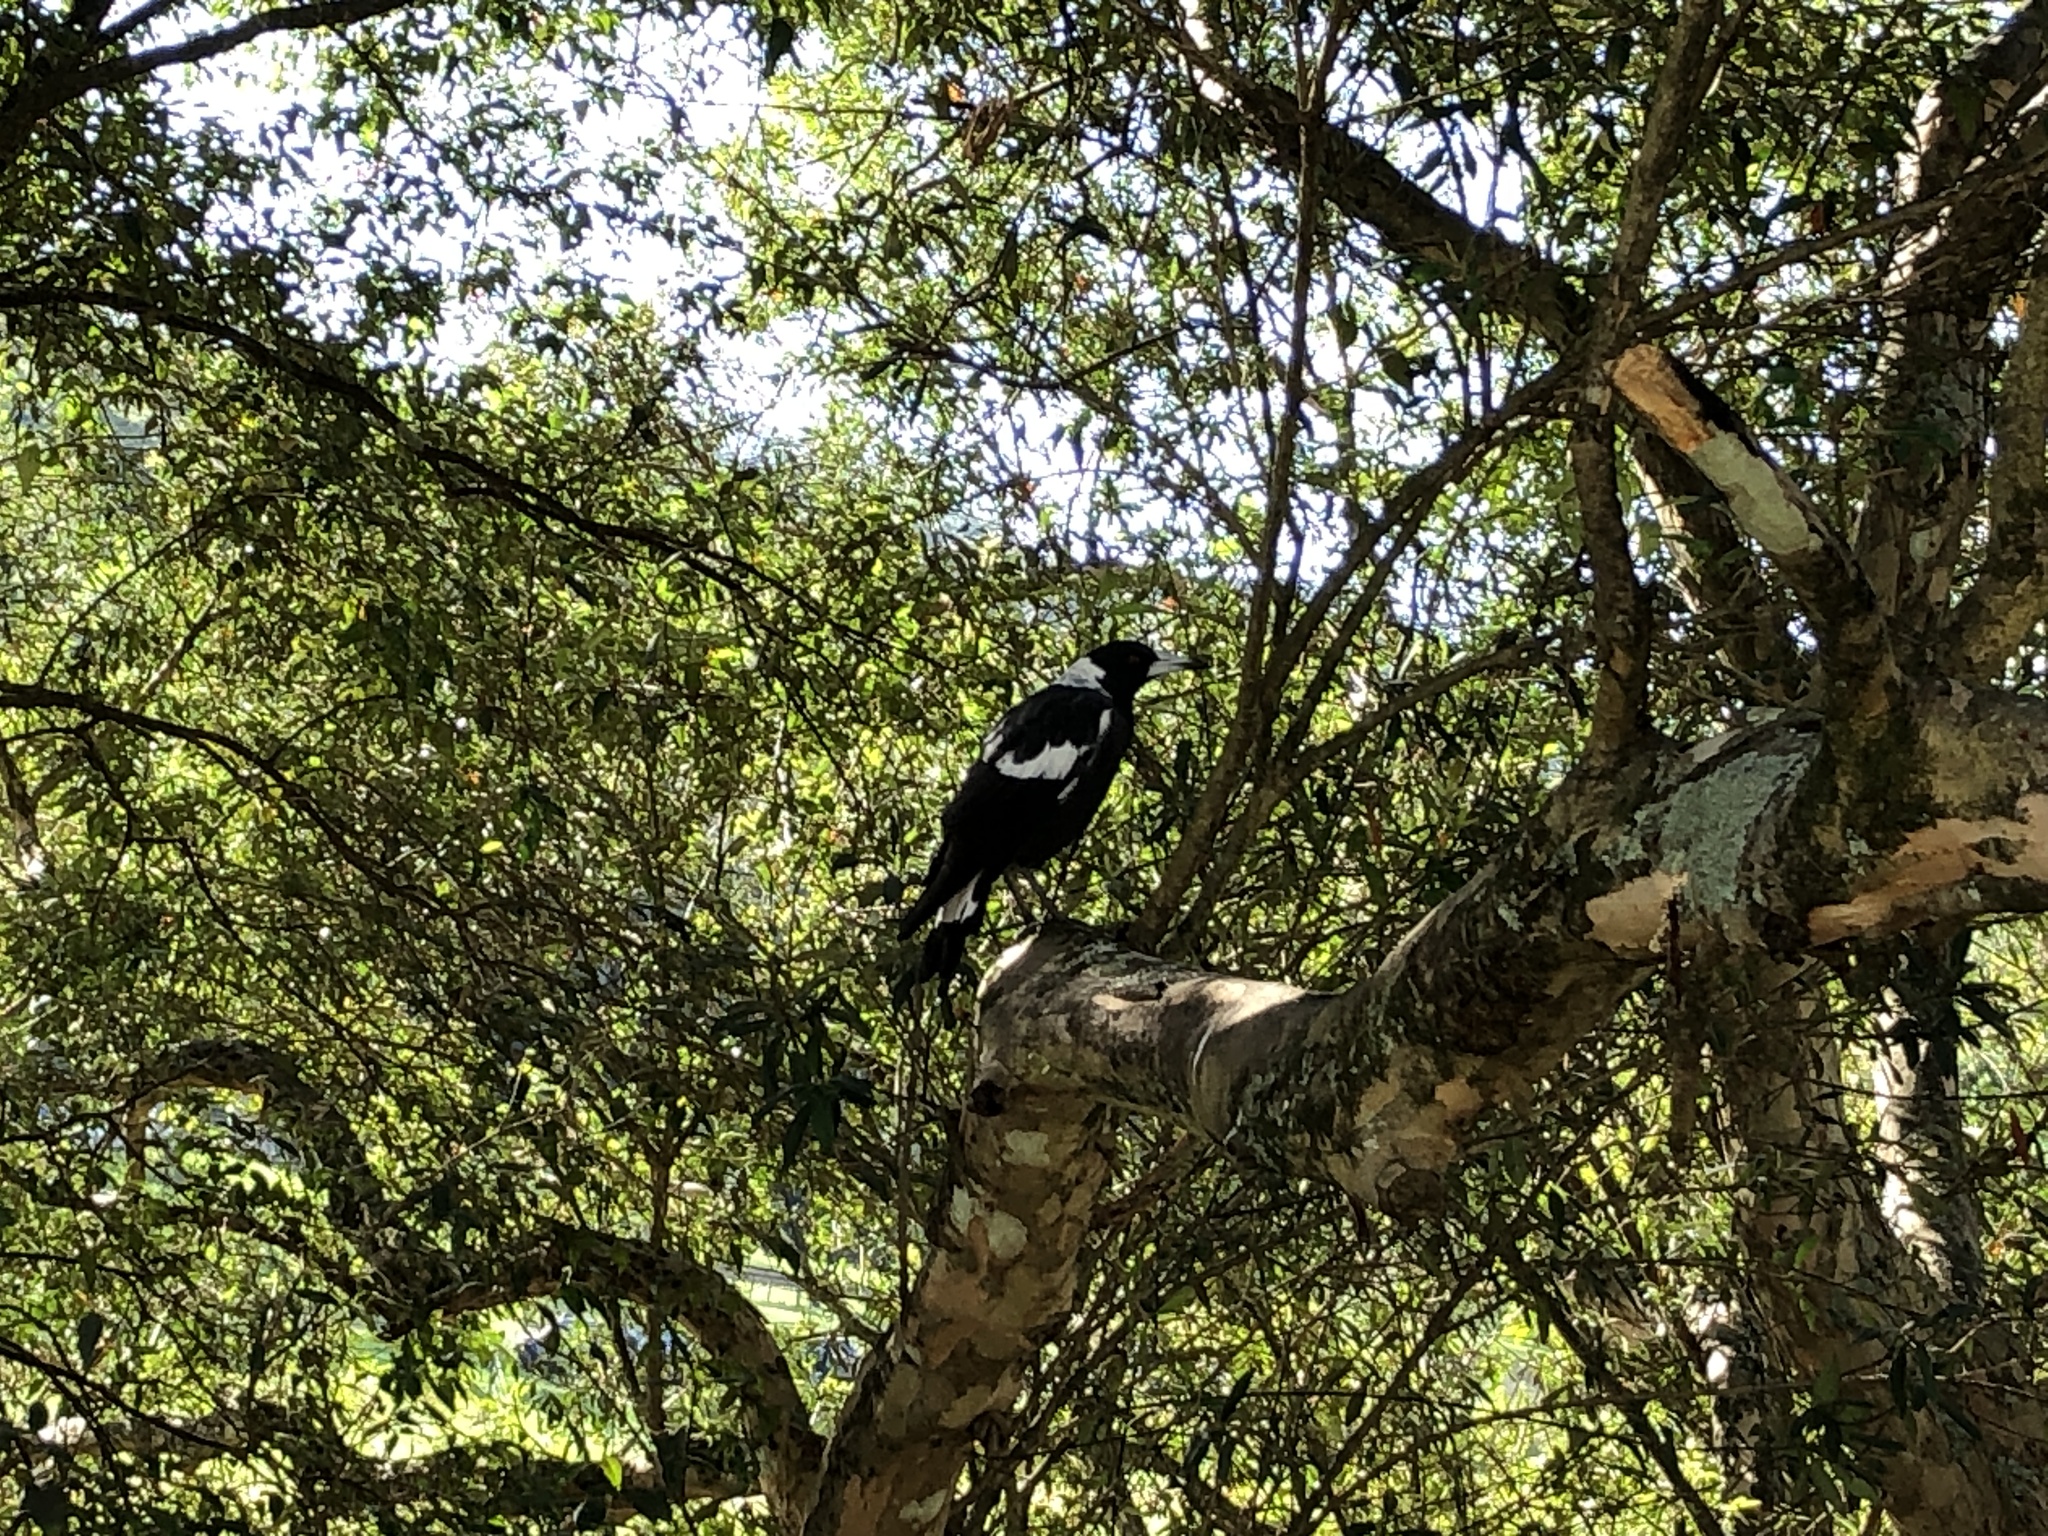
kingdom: Animalia
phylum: Chordata
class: Aves
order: Passeriformes
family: Cracticidae
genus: Gymnorhina
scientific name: Gymnorhina tibicen
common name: Australian magpie
